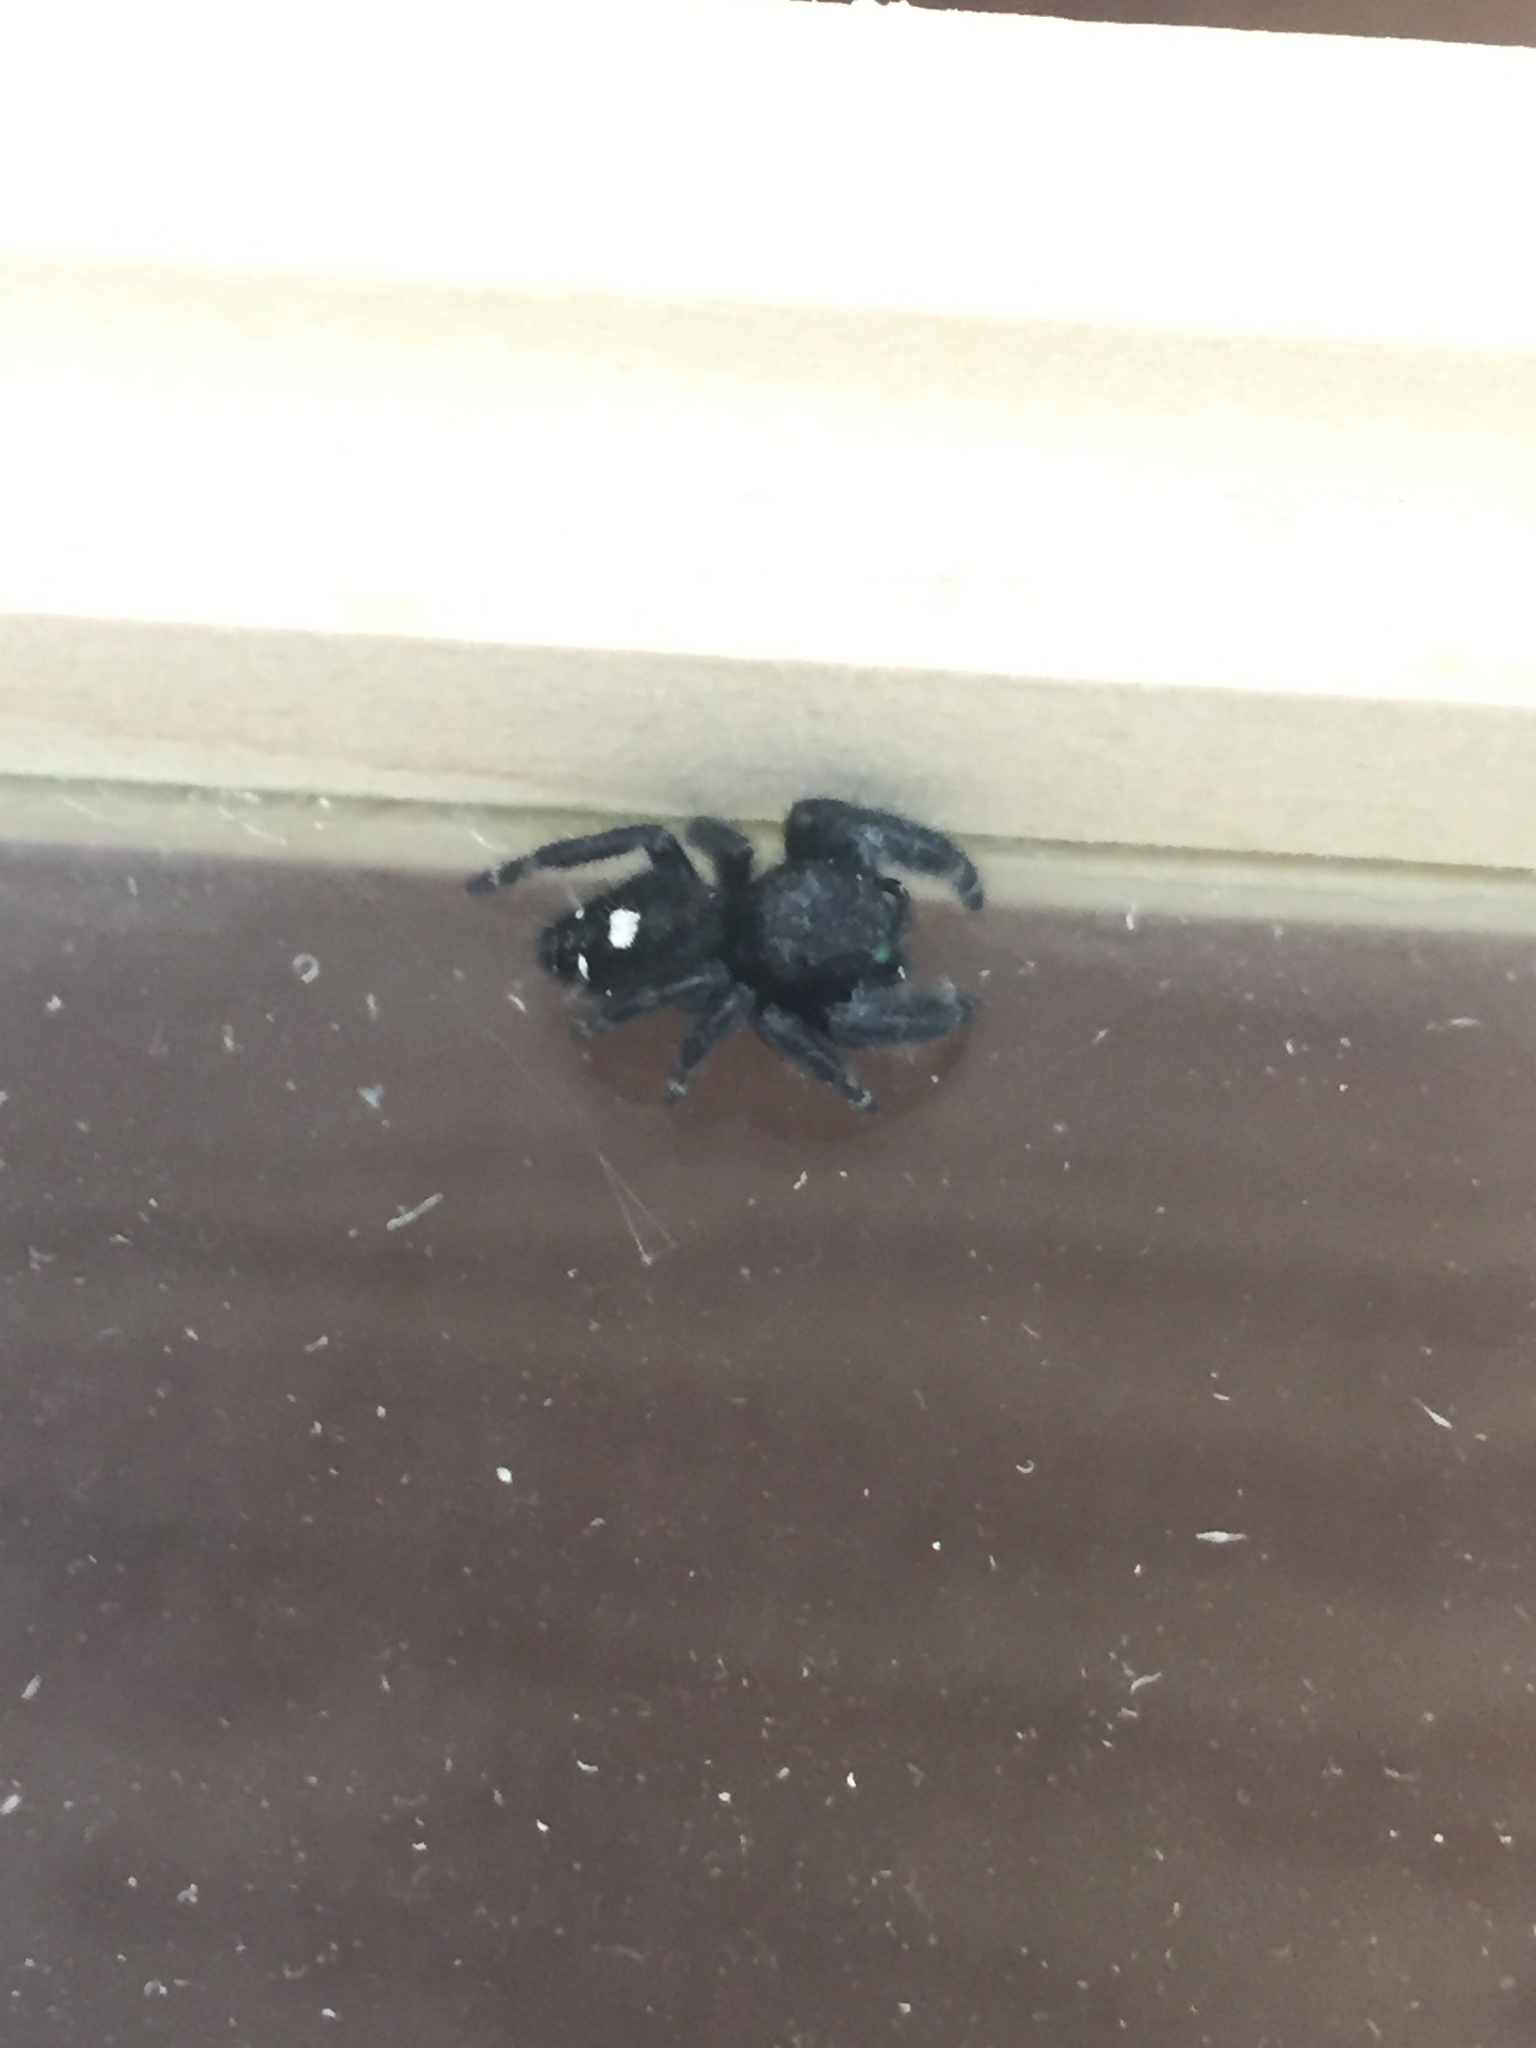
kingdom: Animalia
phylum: Arthropoda
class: Arachnida
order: Araneae
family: Salticidae
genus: Phidippus
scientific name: Phidippus audax
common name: Bold jumper
